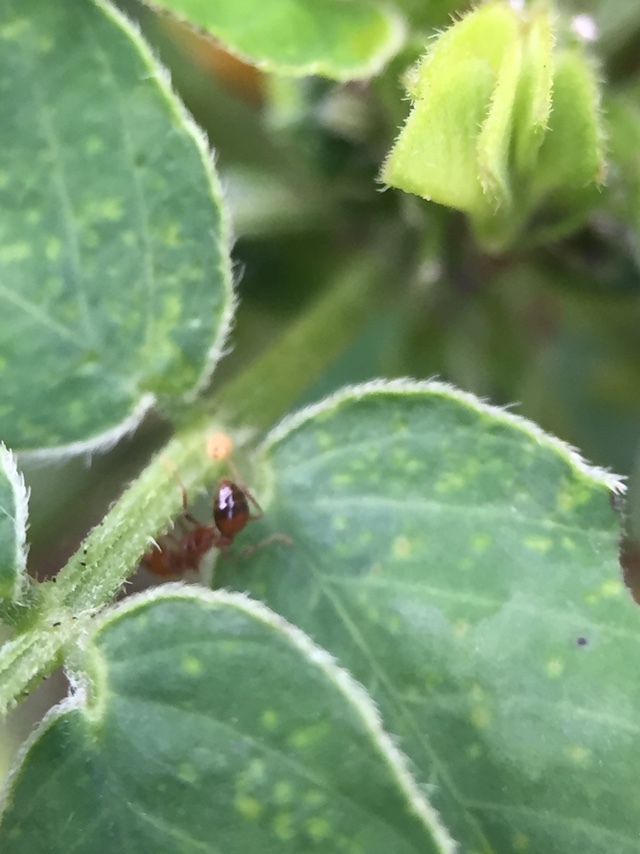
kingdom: Animalia
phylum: Arthropoda
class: Insecta
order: Hymenoptera
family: Formicidae
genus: Solenopsis
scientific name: Solenopsis geminata
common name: Tropical fire ant
